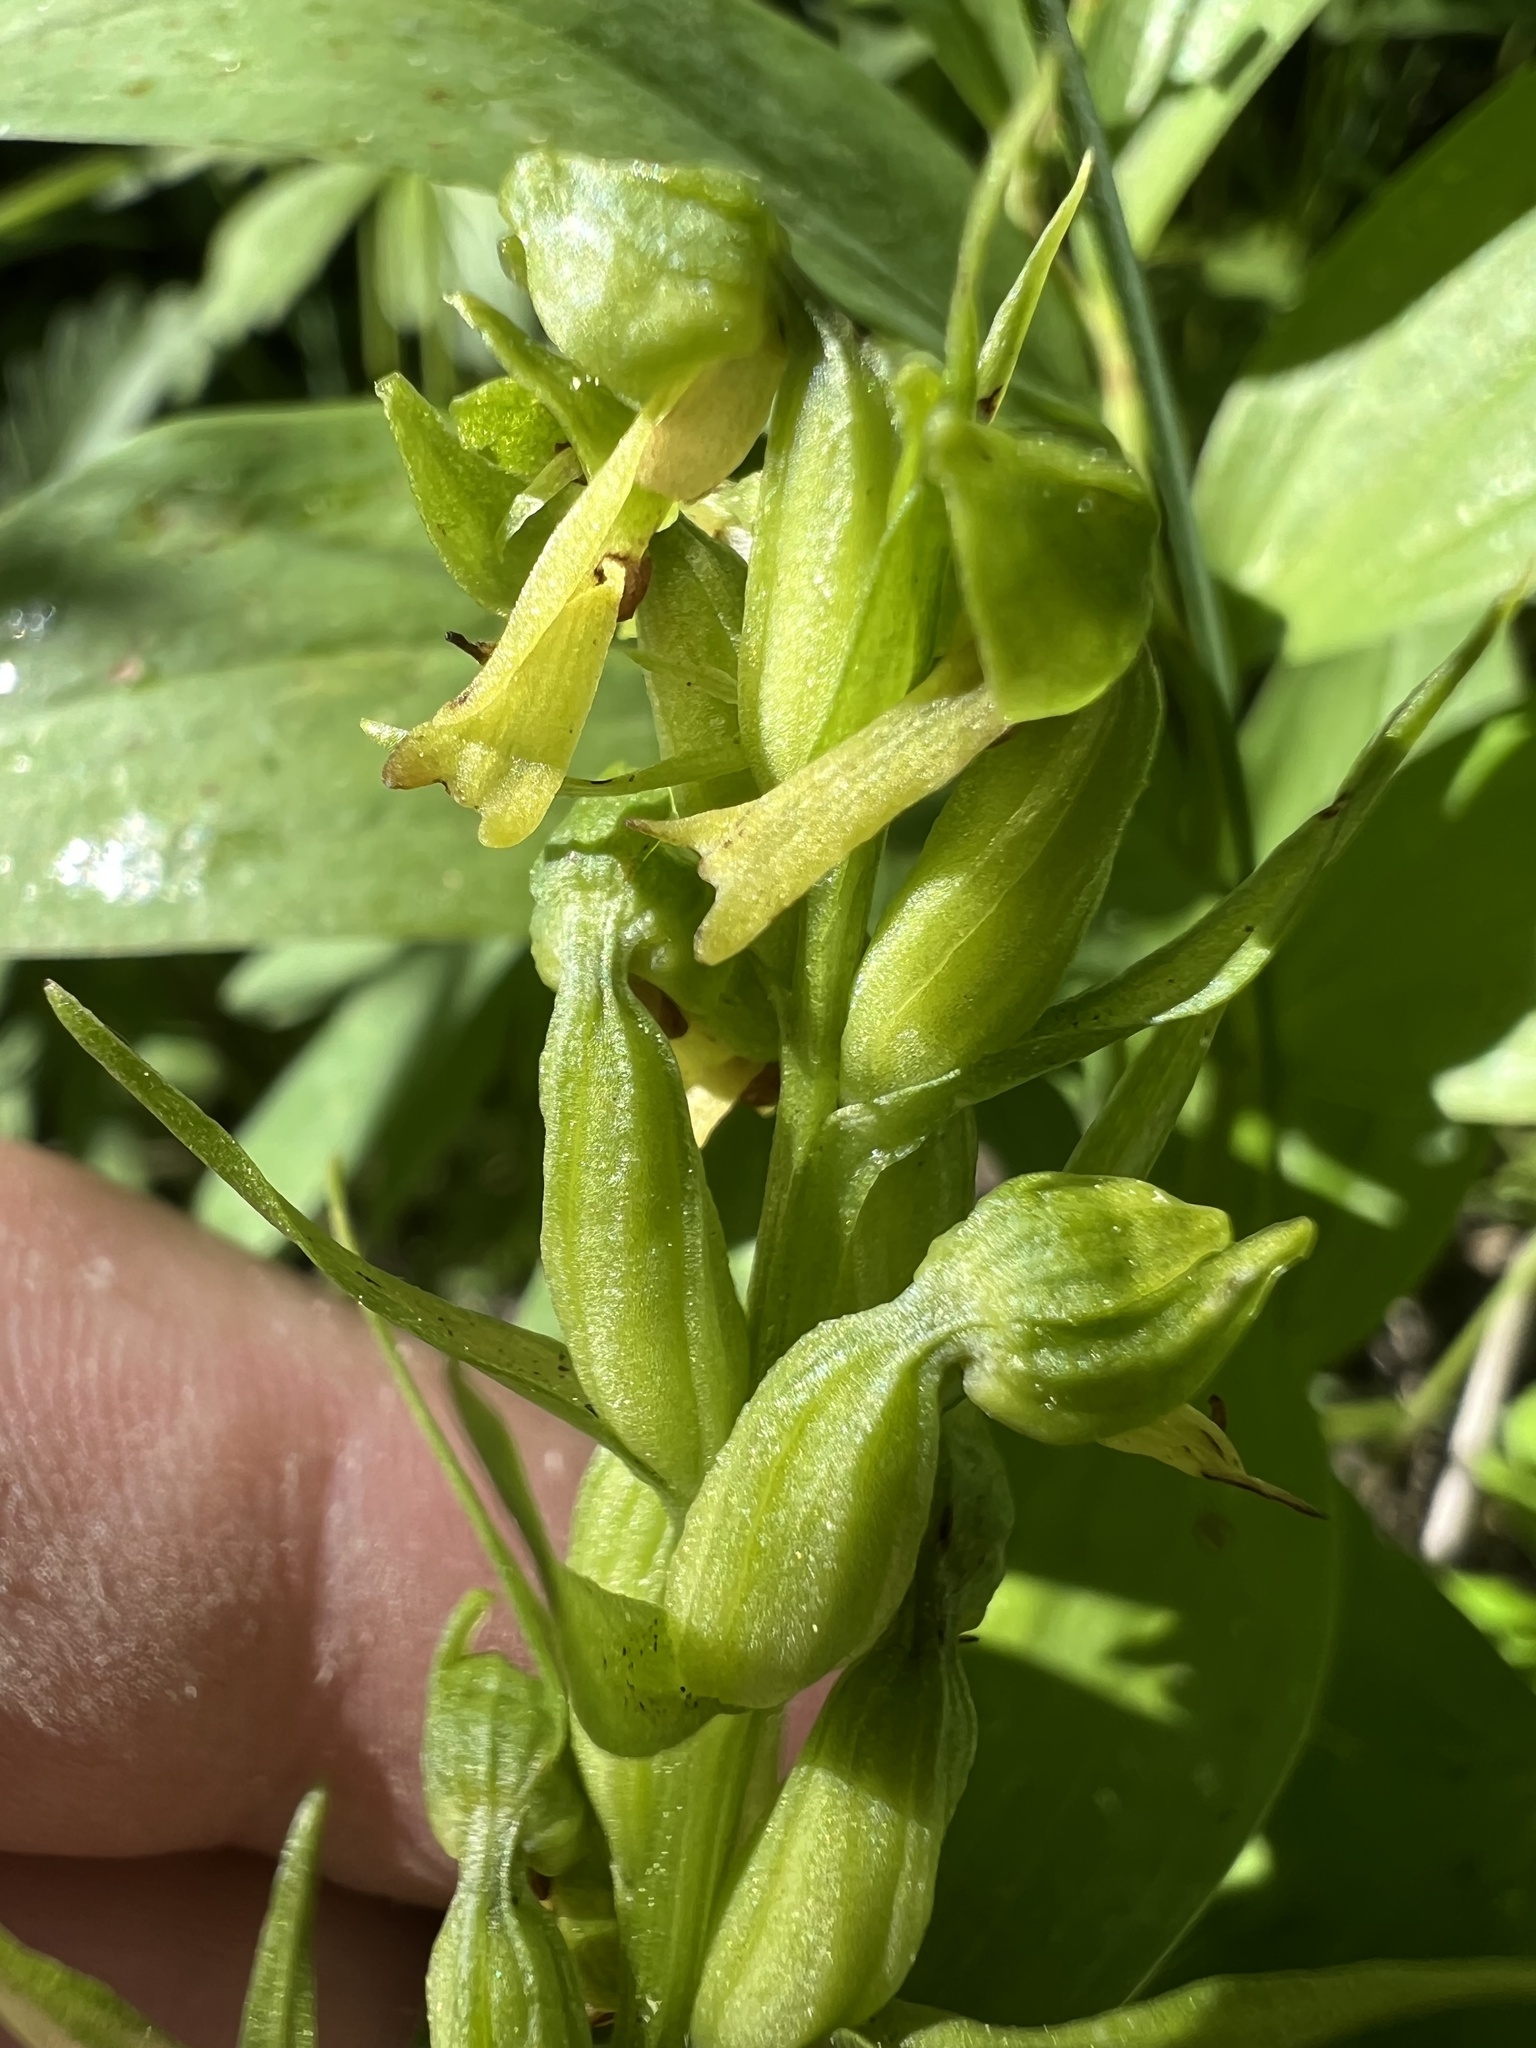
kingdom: Plantae
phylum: Tracheophyta
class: Liliopsida
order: Asparagales
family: Orchidaceae
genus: Dactylorhiza
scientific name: Dactylorhiza viridis
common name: Longbract frog orchid
